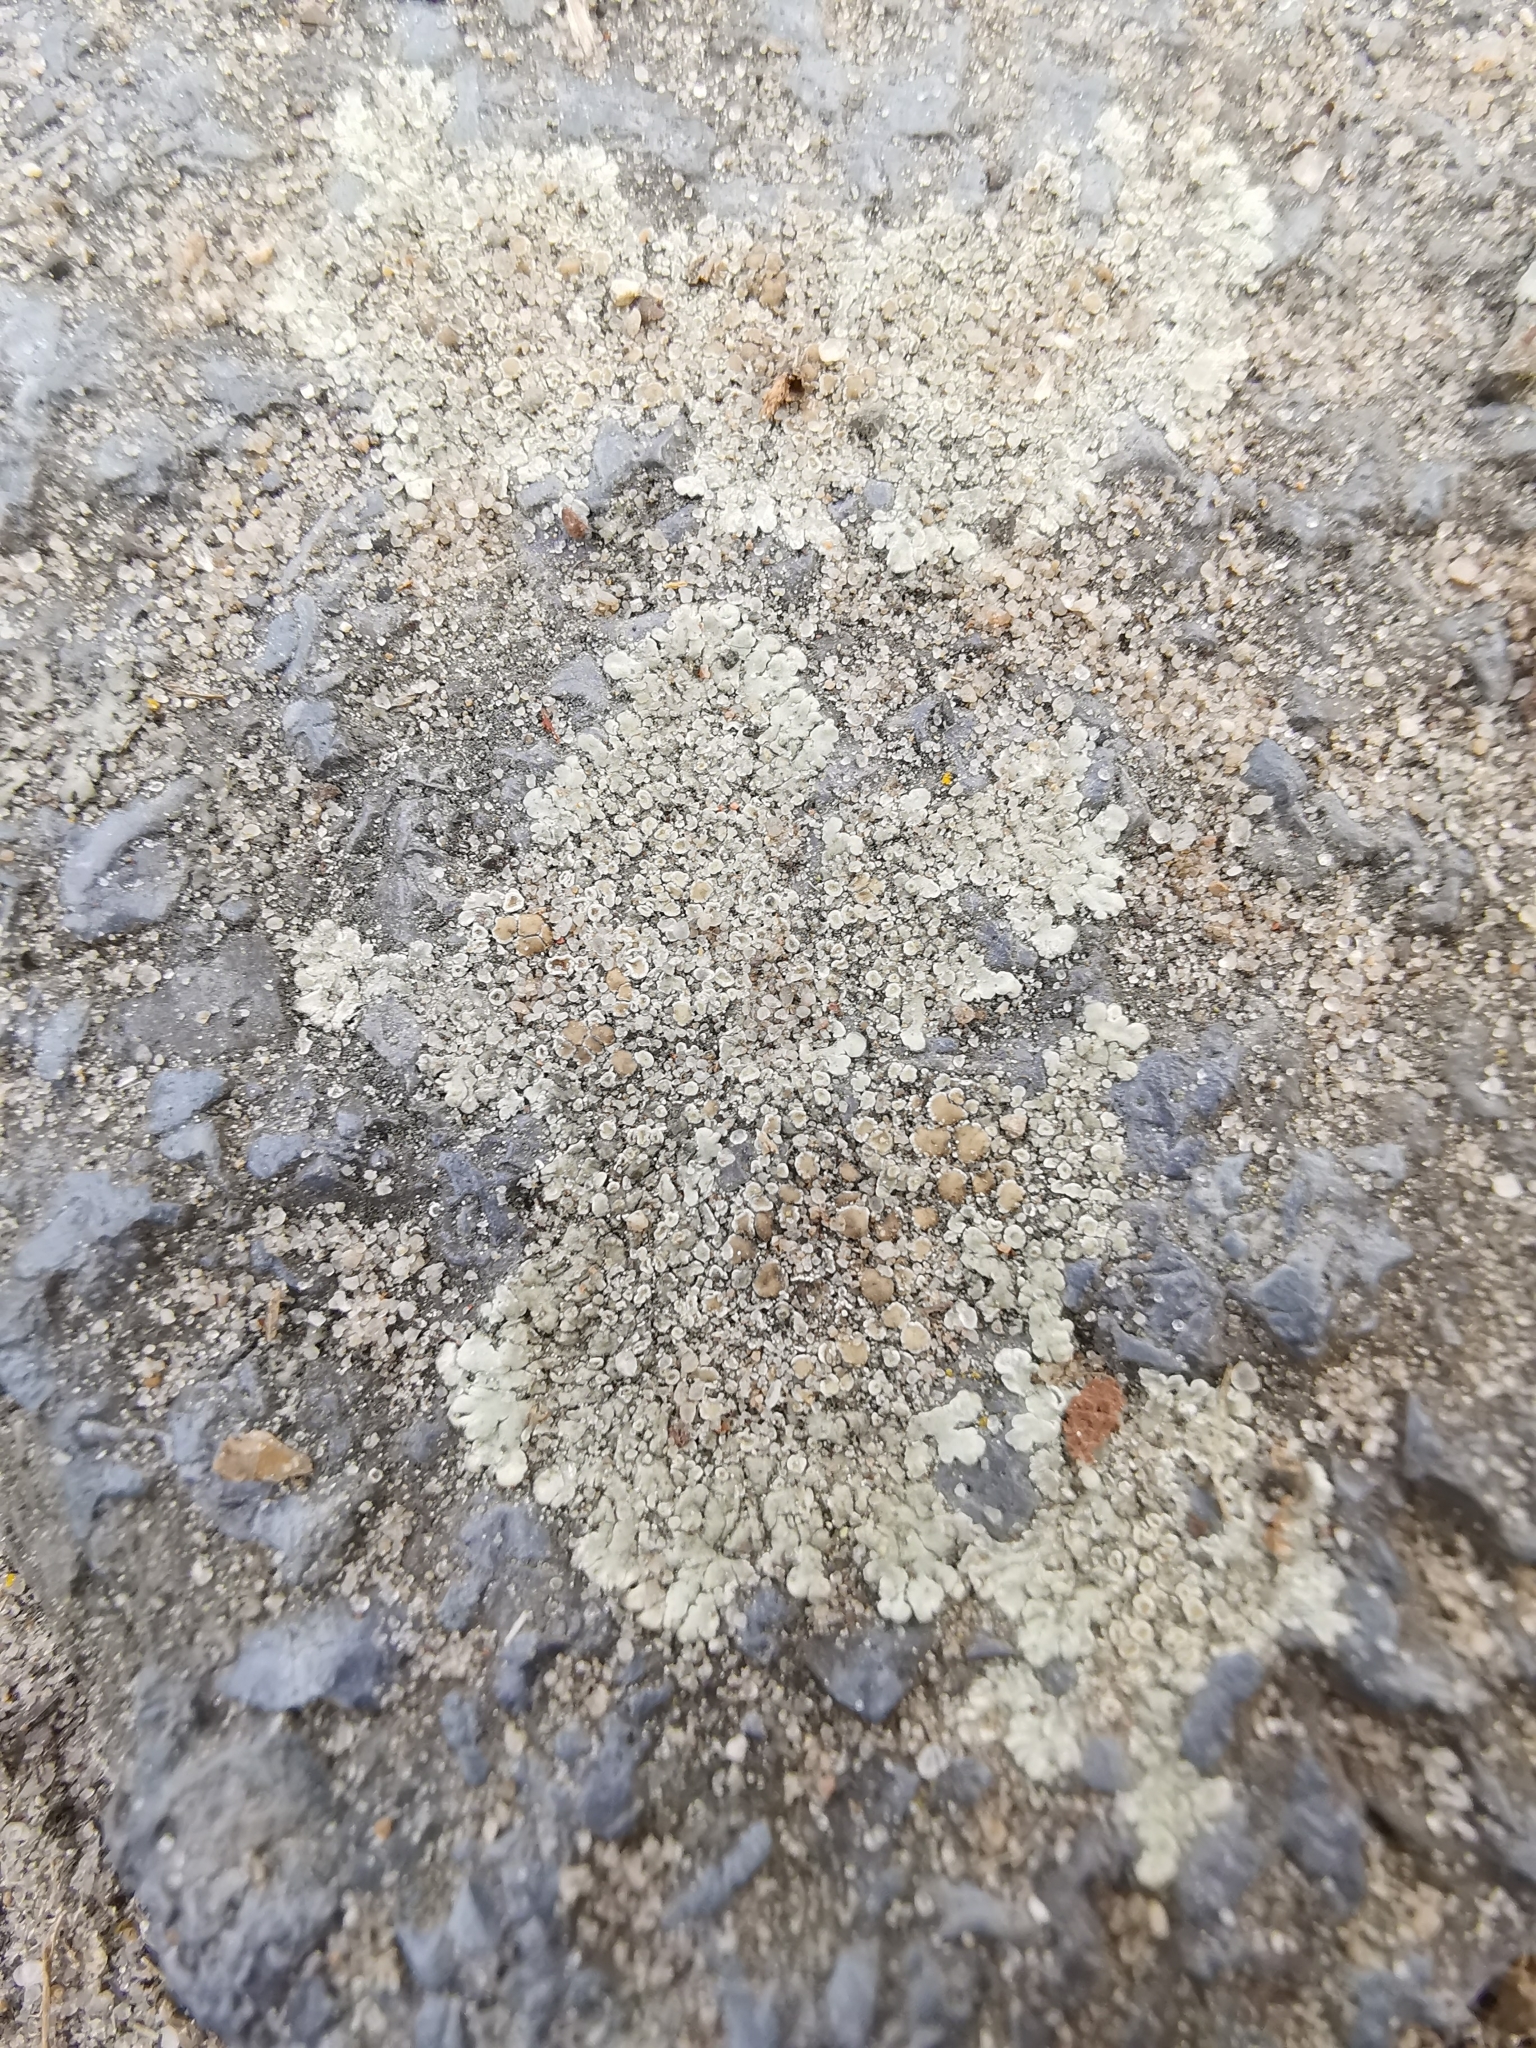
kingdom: Fungi
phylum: Ascomycota
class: Lecanoromycetes
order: Lecanorales
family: Lecanoraceae
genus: Protoparmeliopsis
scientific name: Protoparmeliopsis muralis
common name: Stonewall rim lichen
